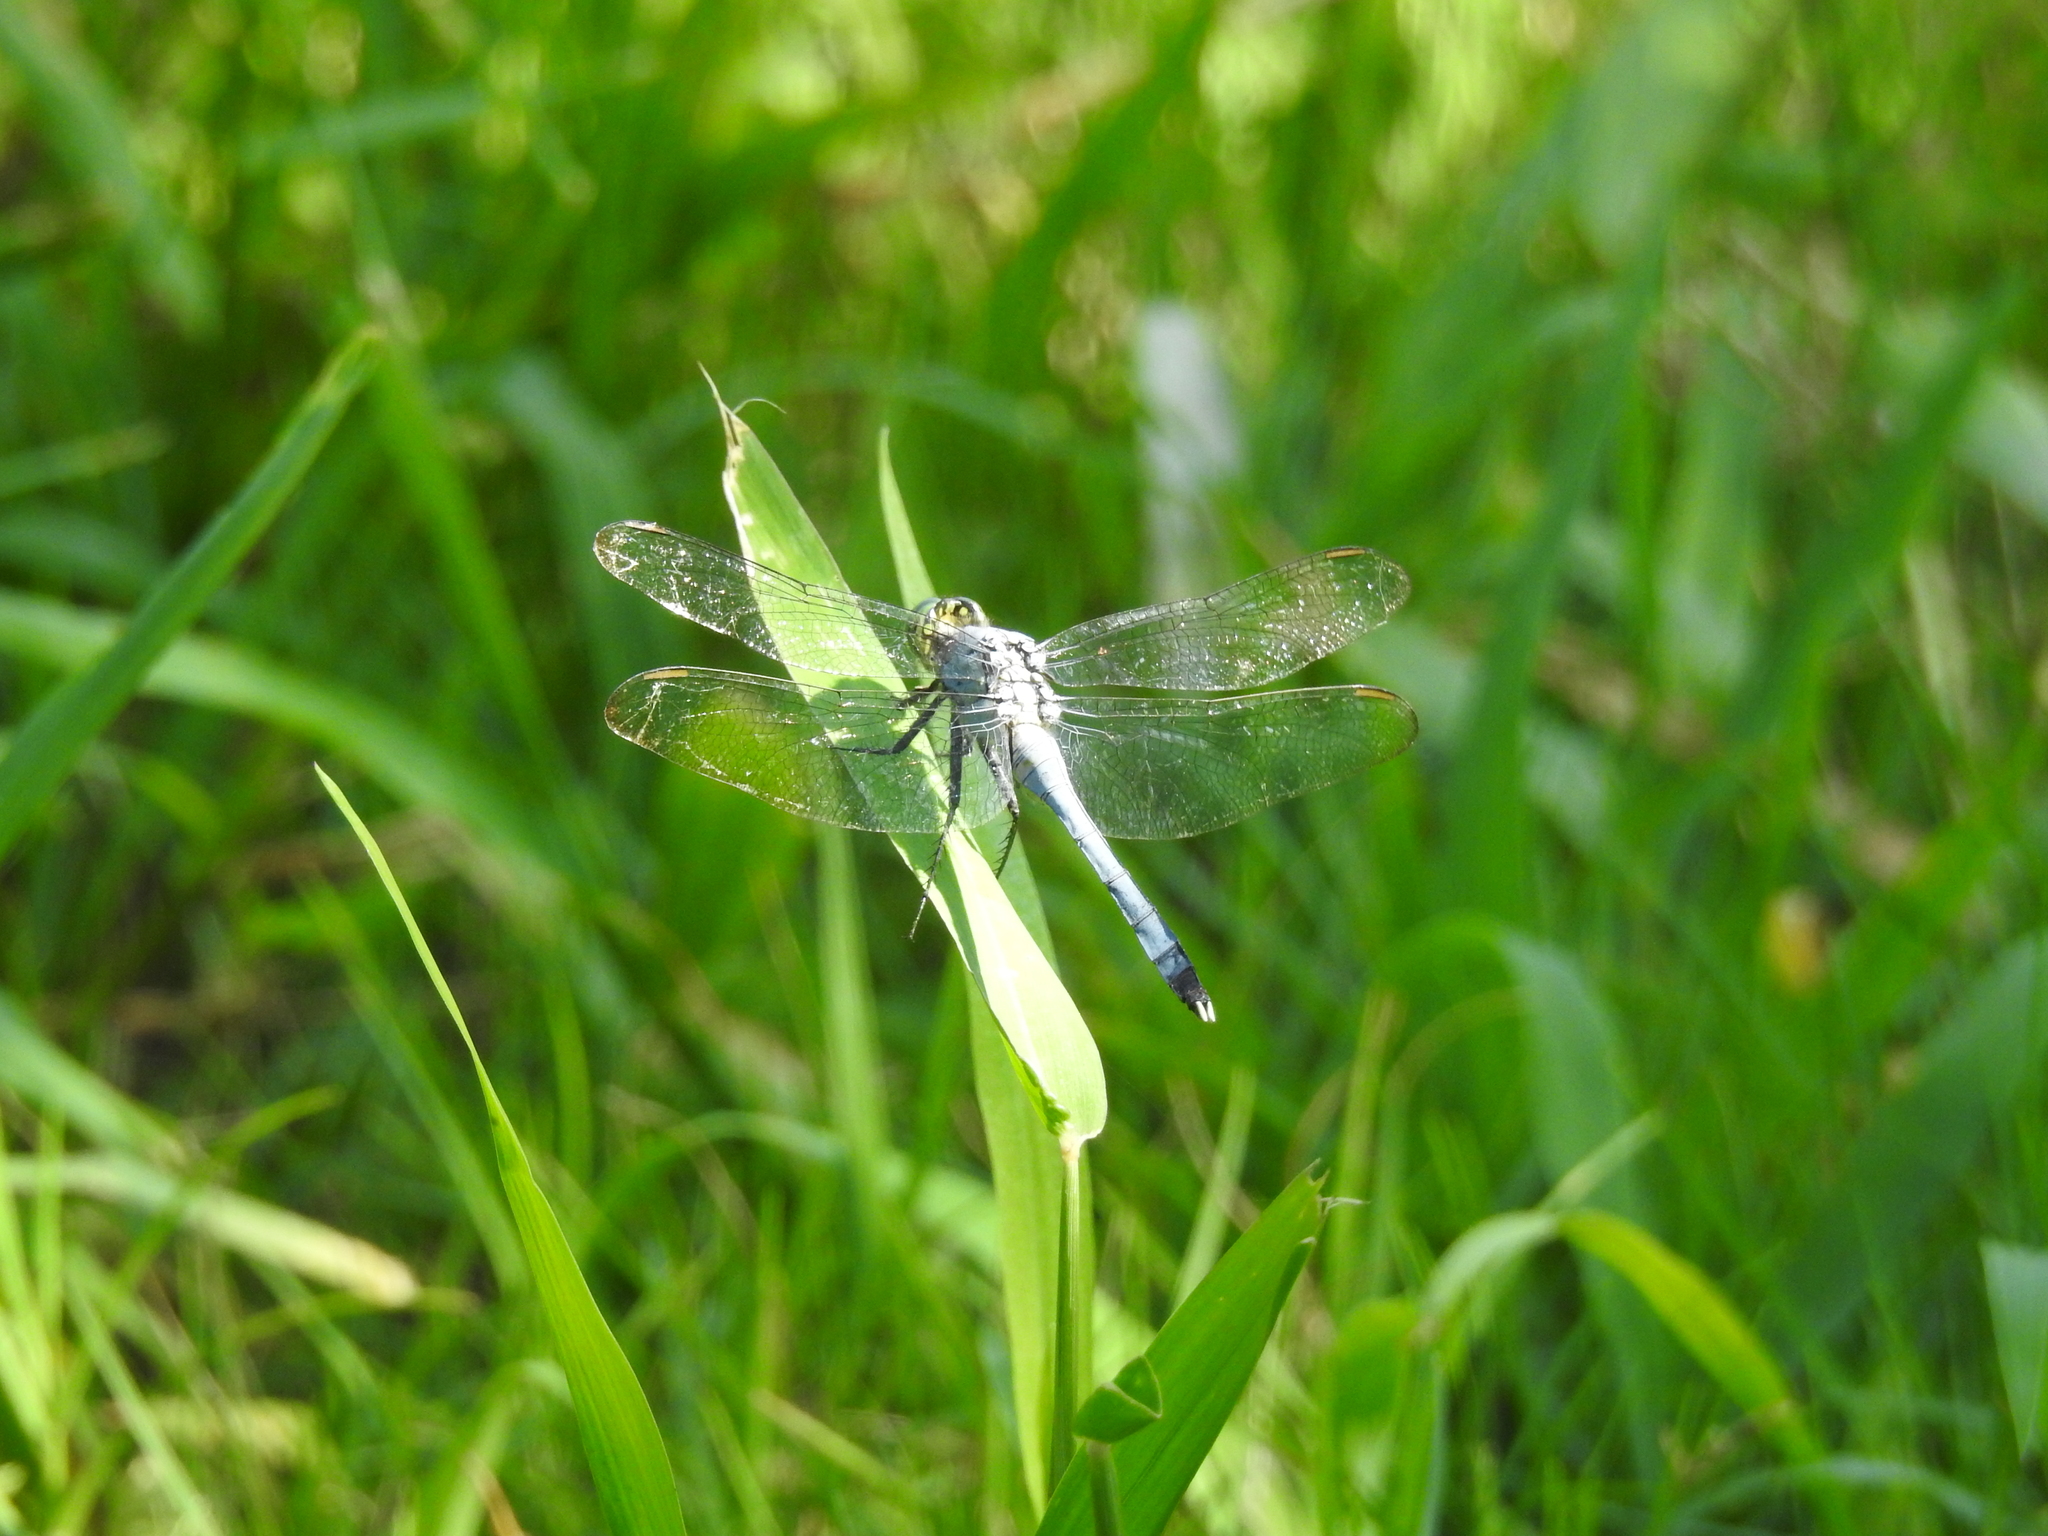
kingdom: Animalia
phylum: Arthropoda
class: Insecta
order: Odonata
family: Libellulidae
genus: Erythemis
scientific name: Erythemis simplicicollis
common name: Eastern pondhawk
